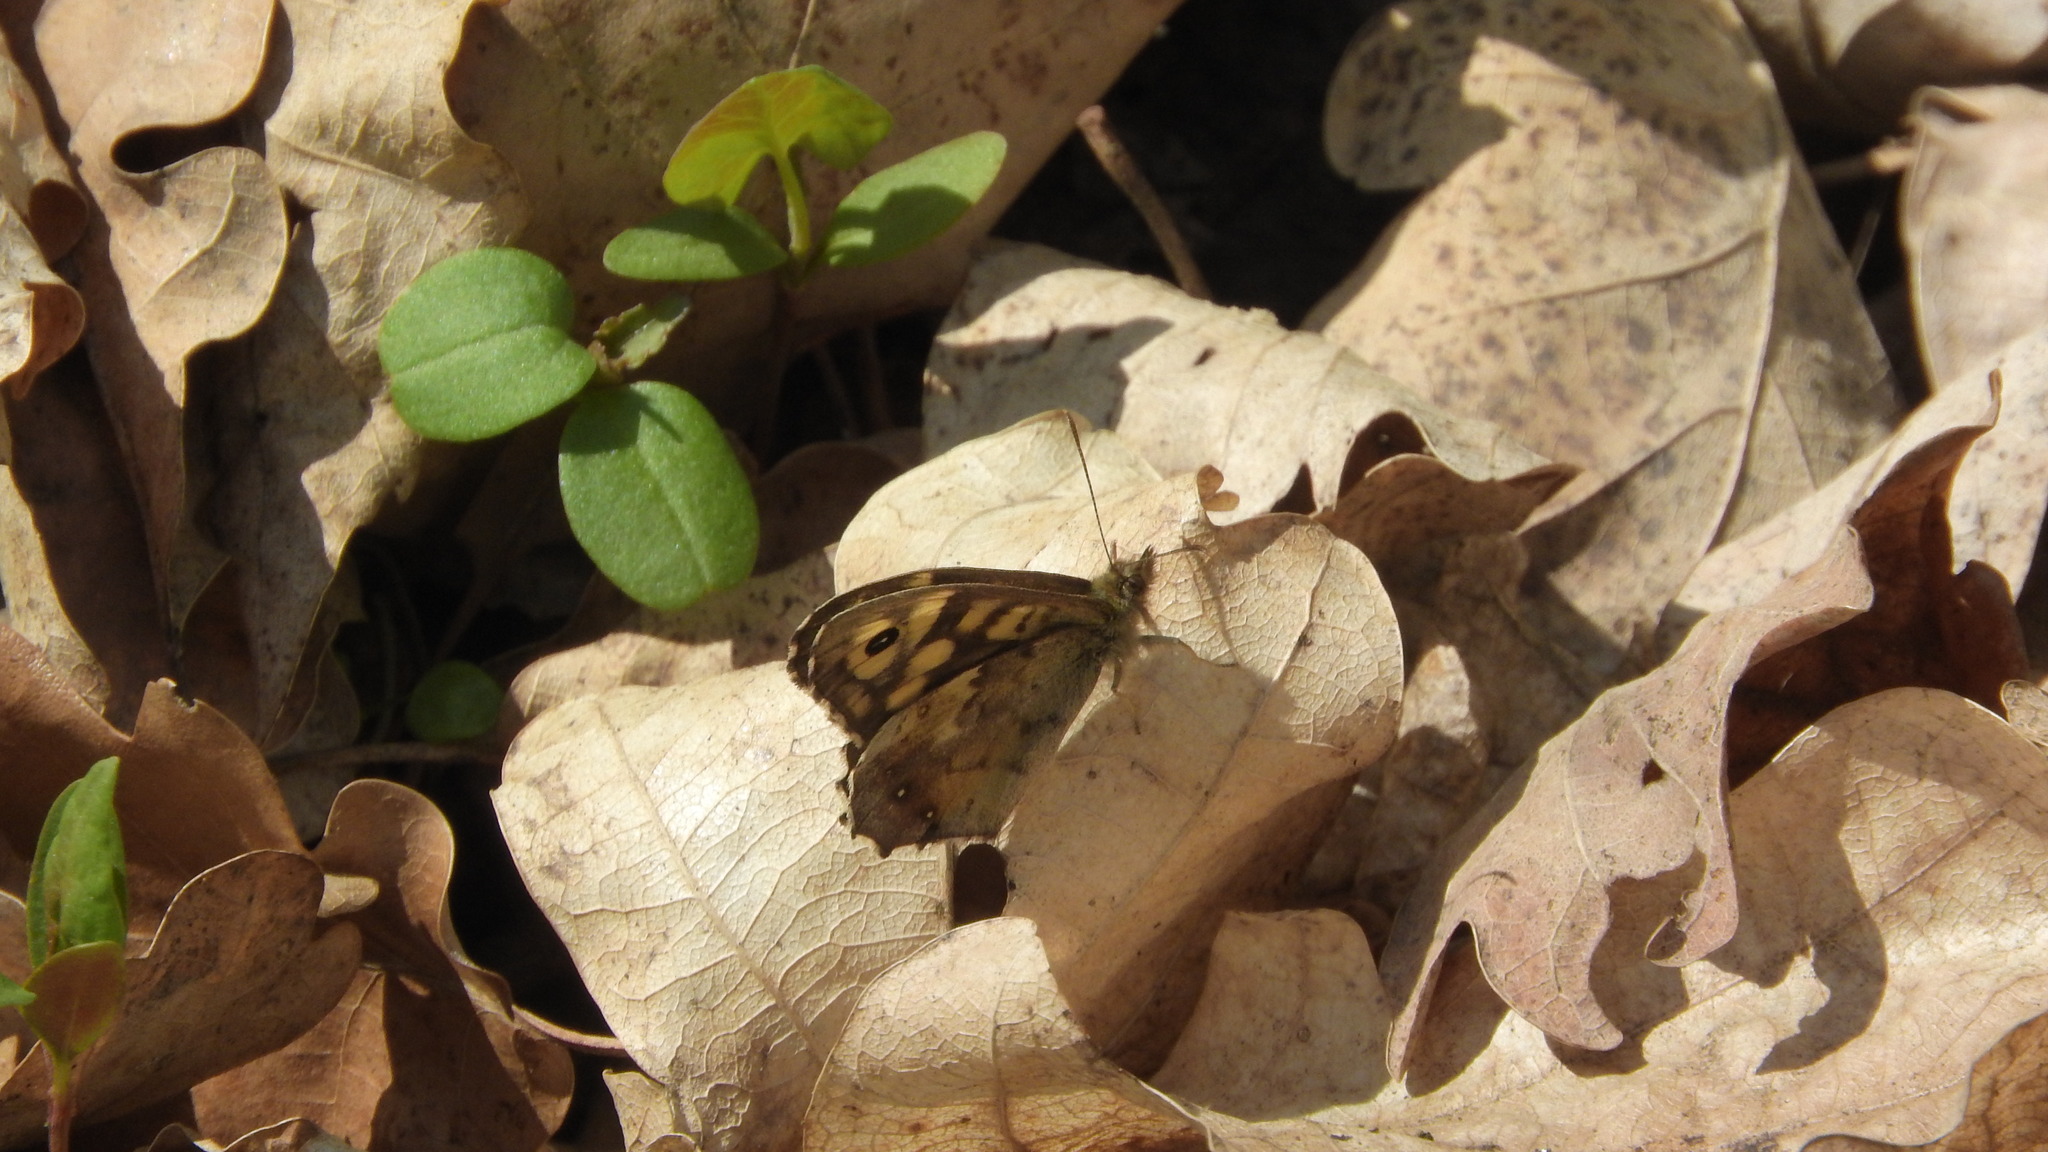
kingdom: Animalia
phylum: Arthropoda
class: Insecta
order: Lepidoptera
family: Nymphalidae
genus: Pararge
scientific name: Pararge aegeria
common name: Speckled wood
